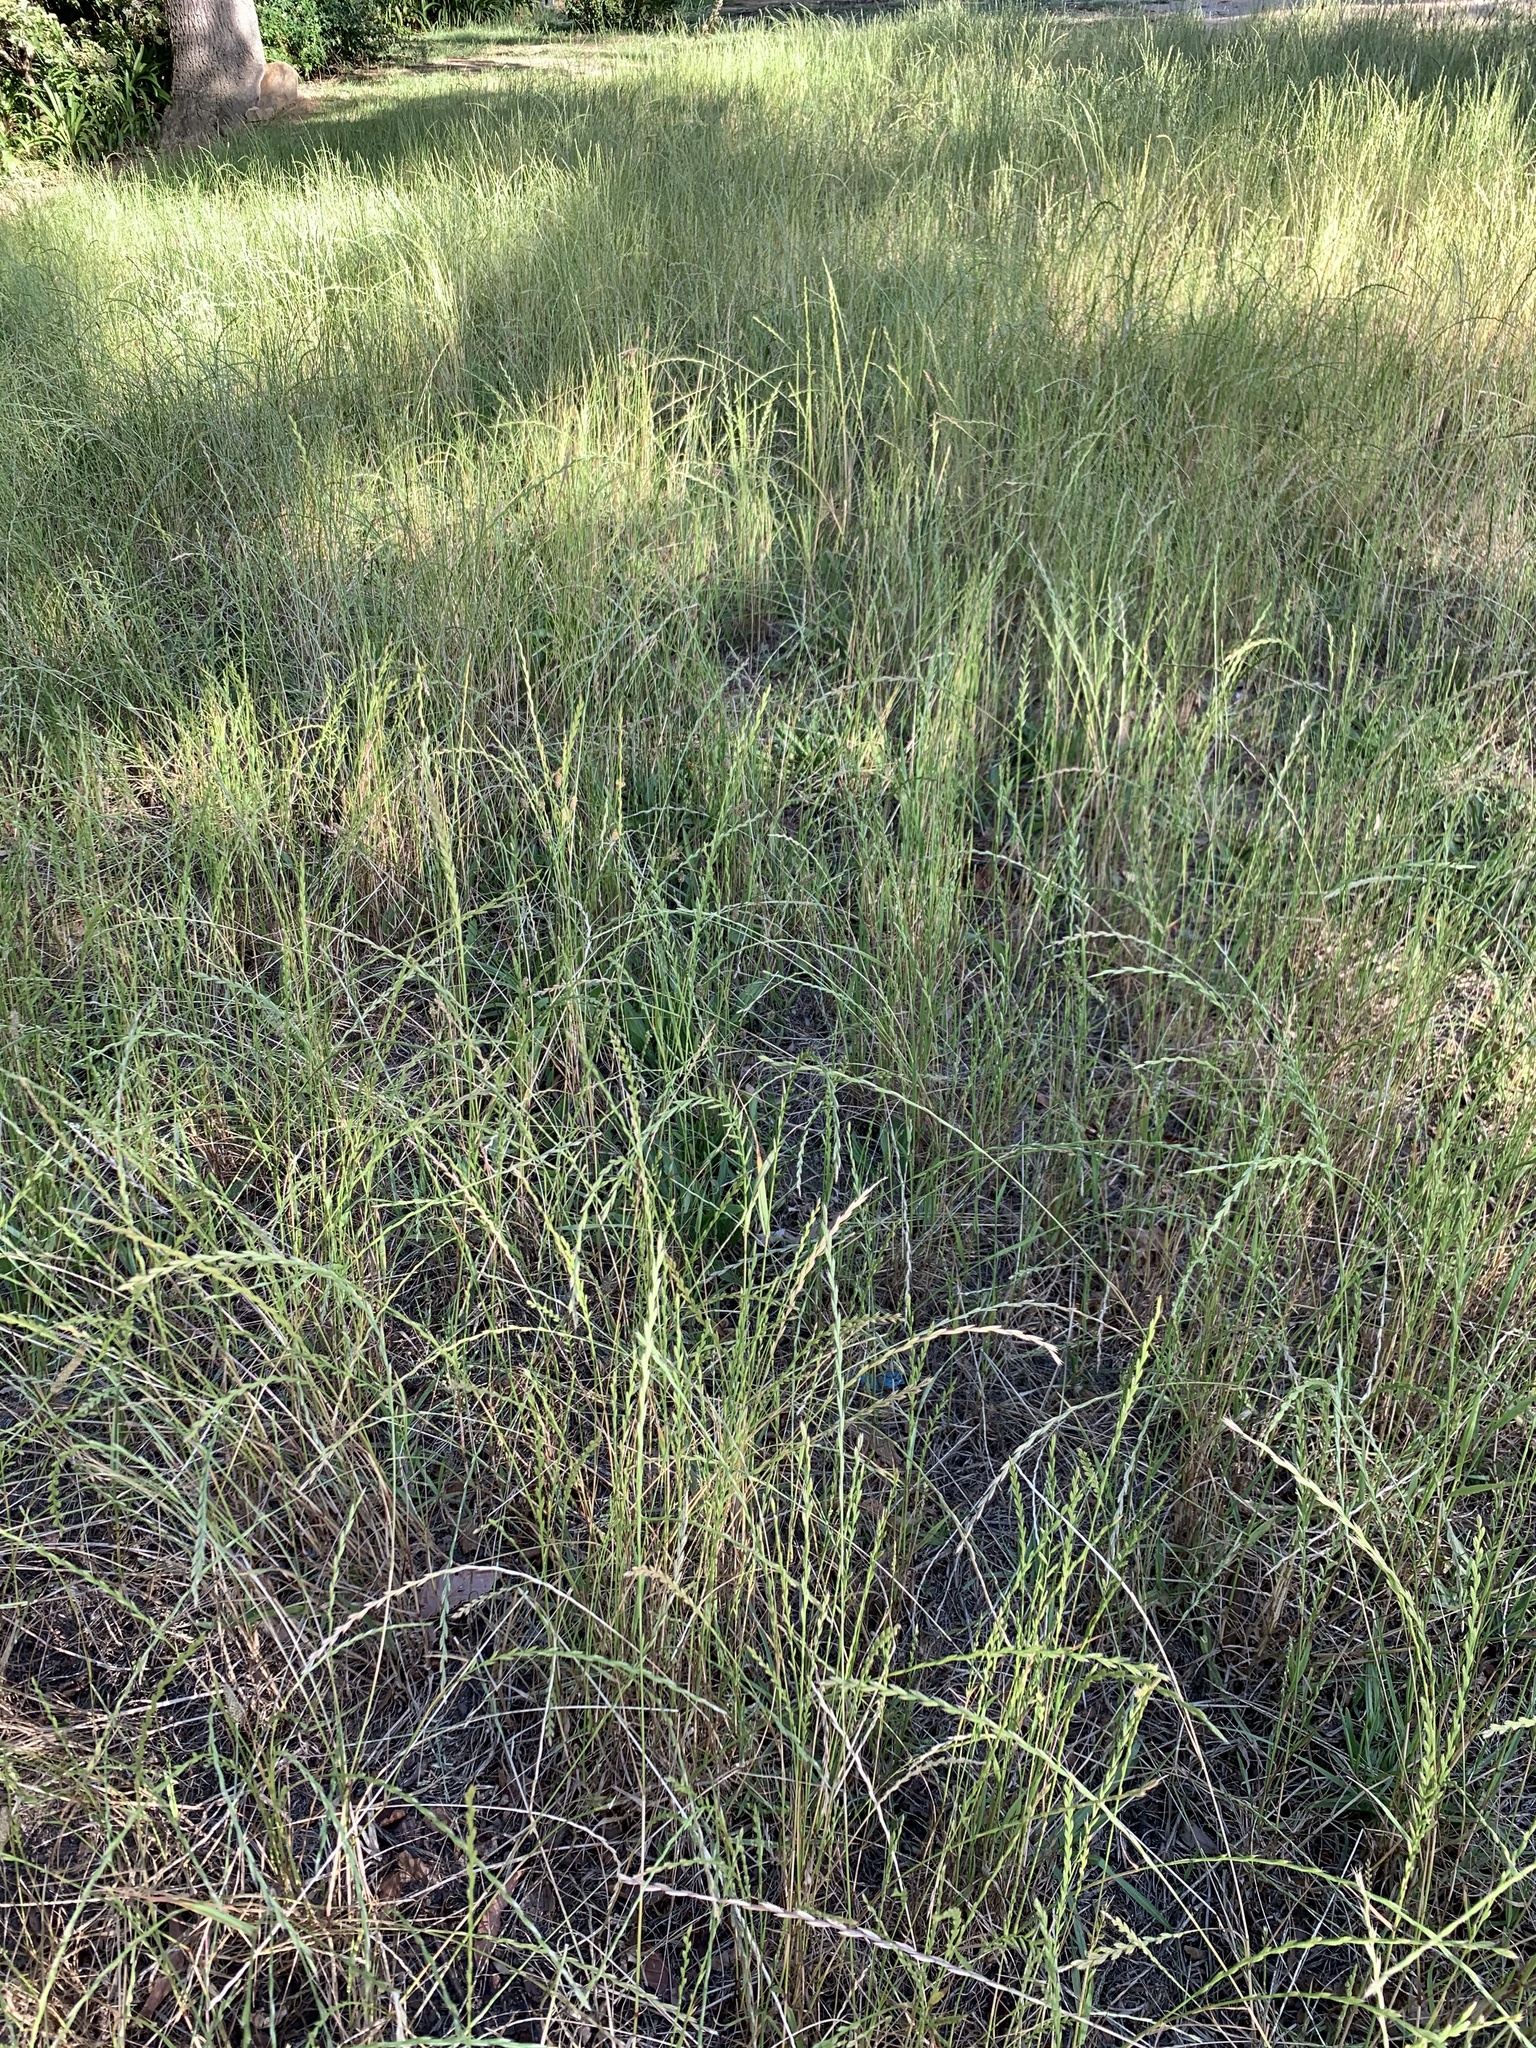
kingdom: Plantae
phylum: Tracheophyta
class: Liliopsida
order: Poales
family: Poaceae
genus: Lolium
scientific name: Lolium multiflorum
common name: Annual ryegrass
